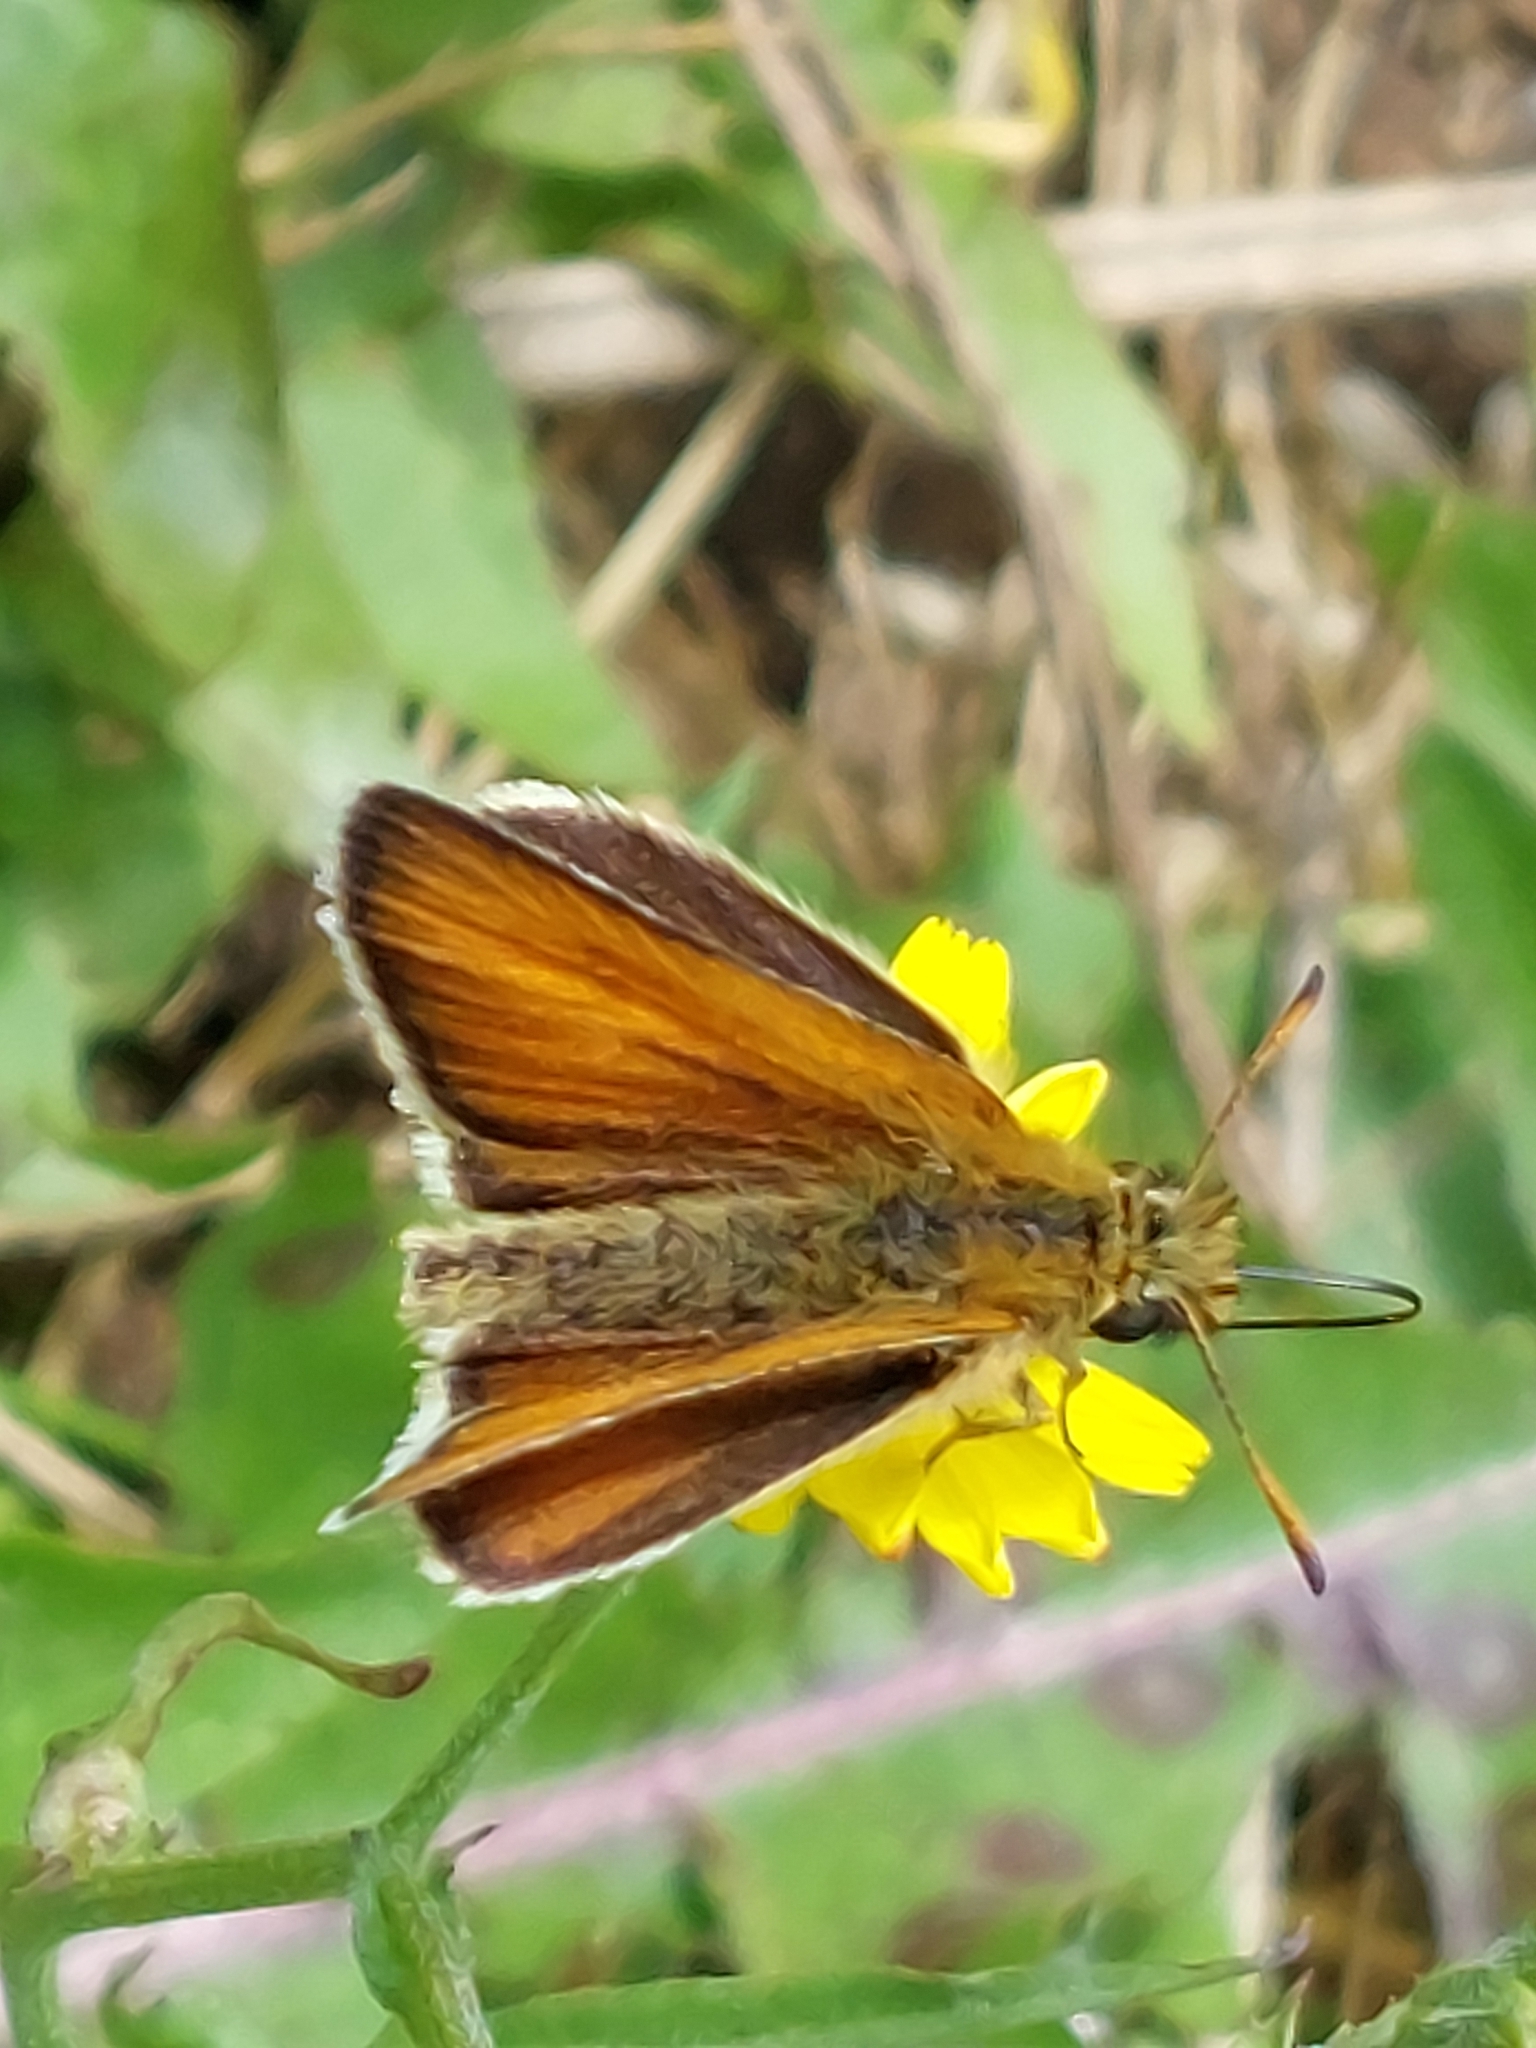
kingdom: Animalia
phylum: Arthropoda
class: Insecta
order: Lepidoptera
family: Hesperiidae
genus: Thymelicus
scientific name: Thymelicus lineola
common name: Essex skipper
